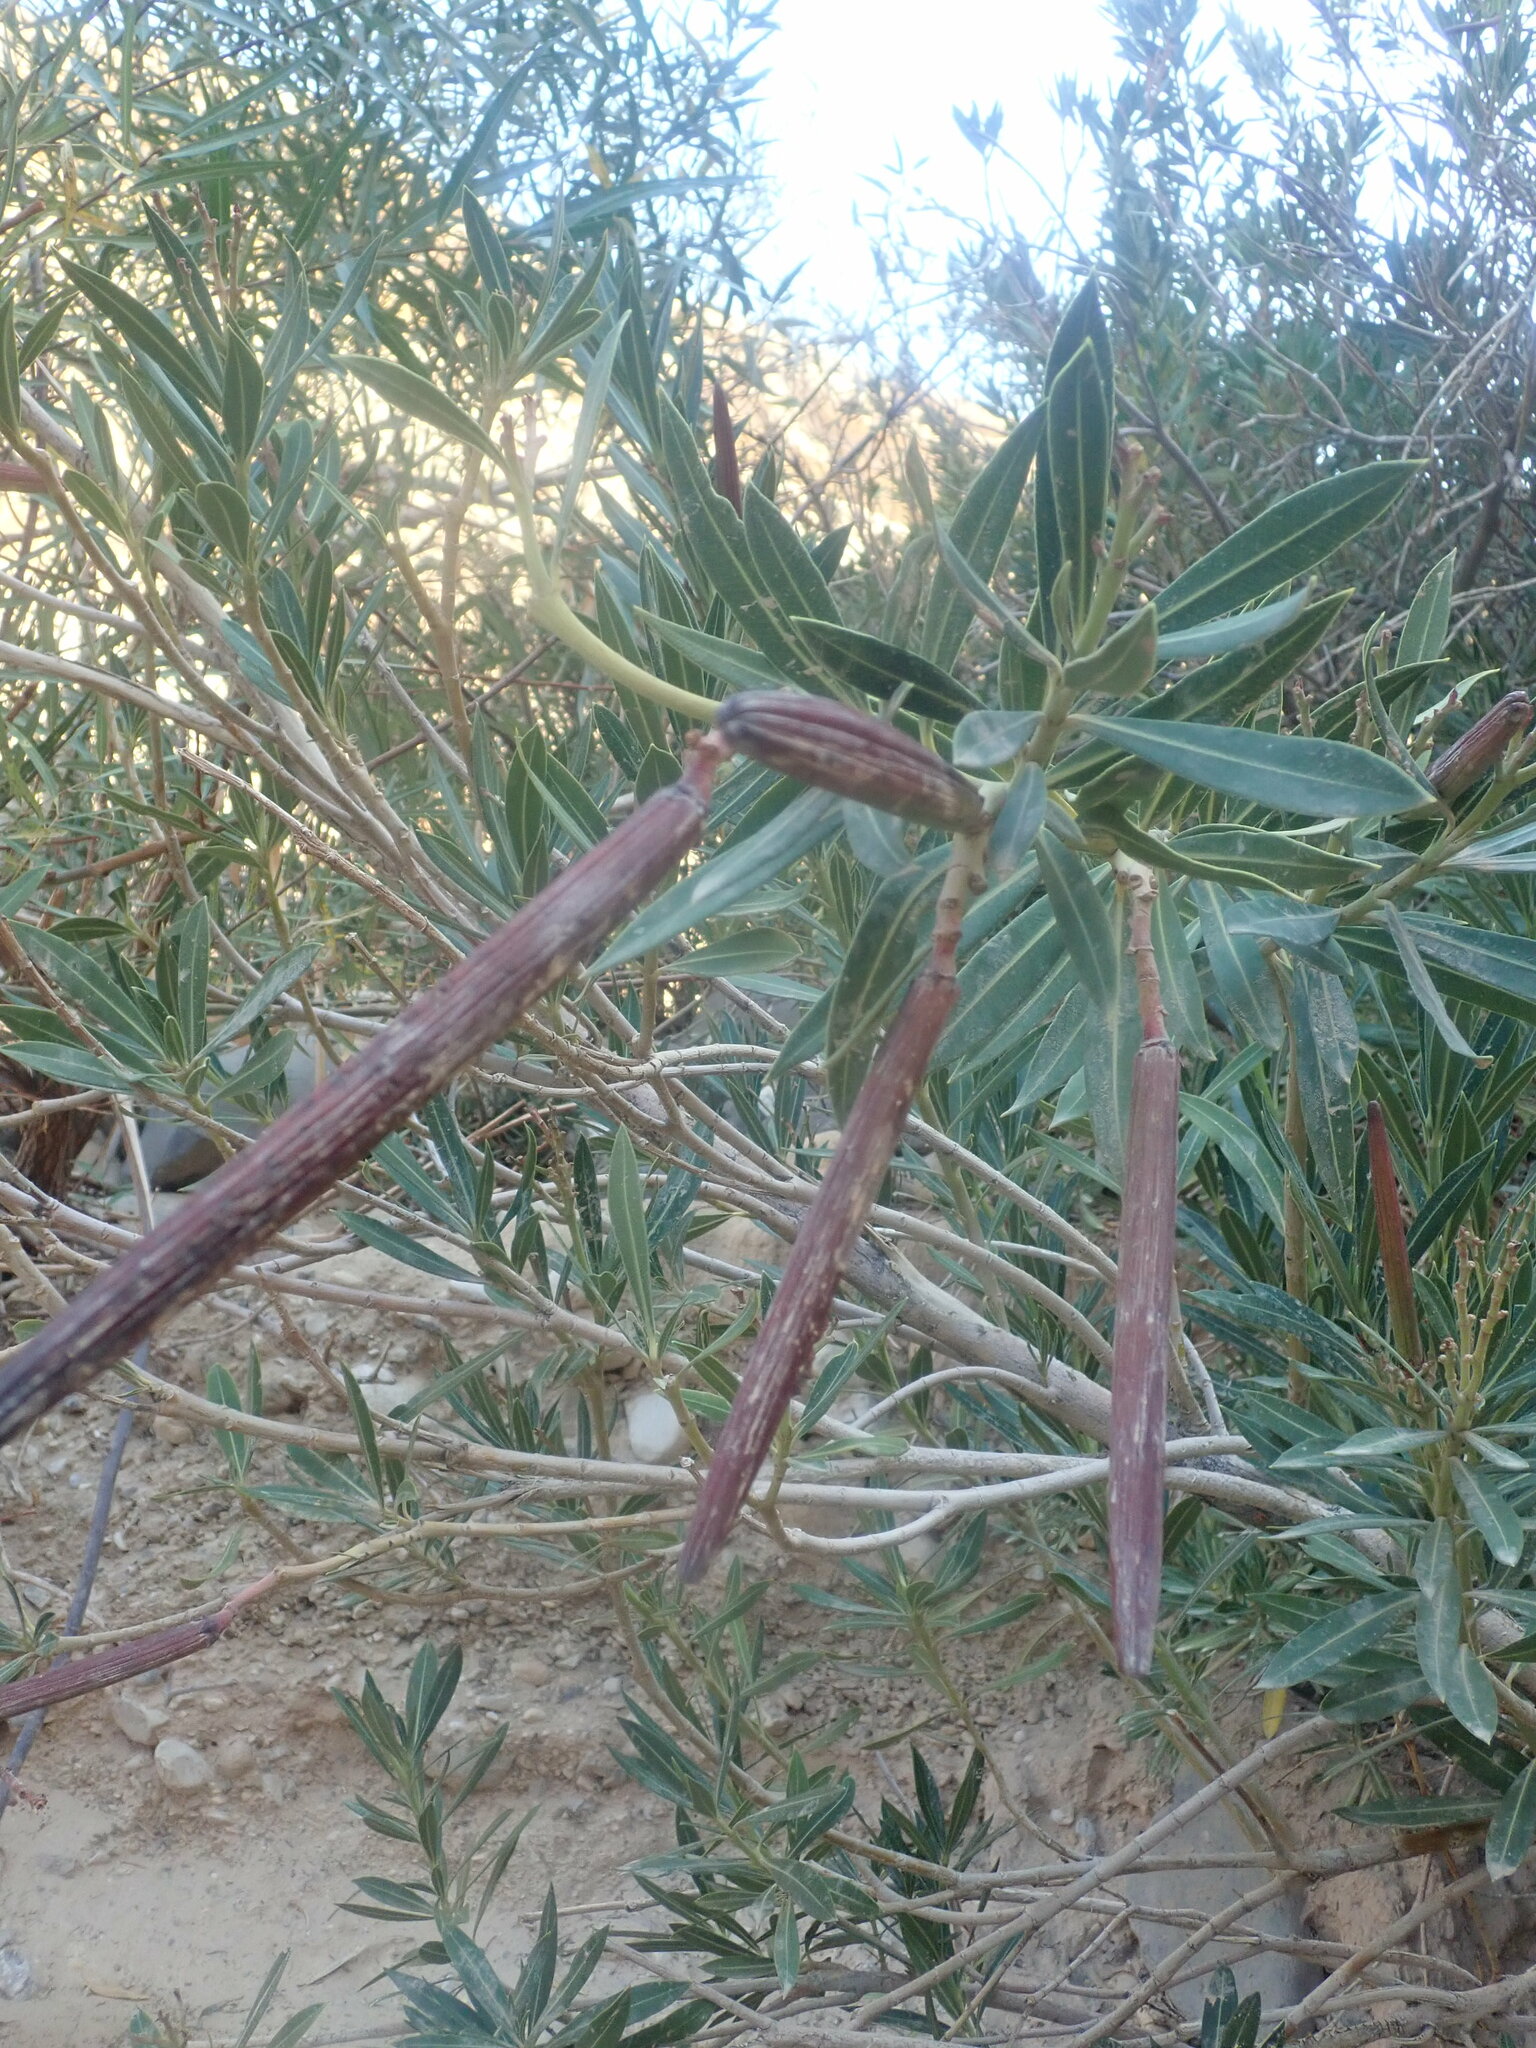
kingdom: Plantae
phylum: Tracheophyta
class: Magnoliopsida
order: Gentianales
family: Apocynaceae
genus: Nerium
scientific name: Nerium oleander
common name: Oleander
